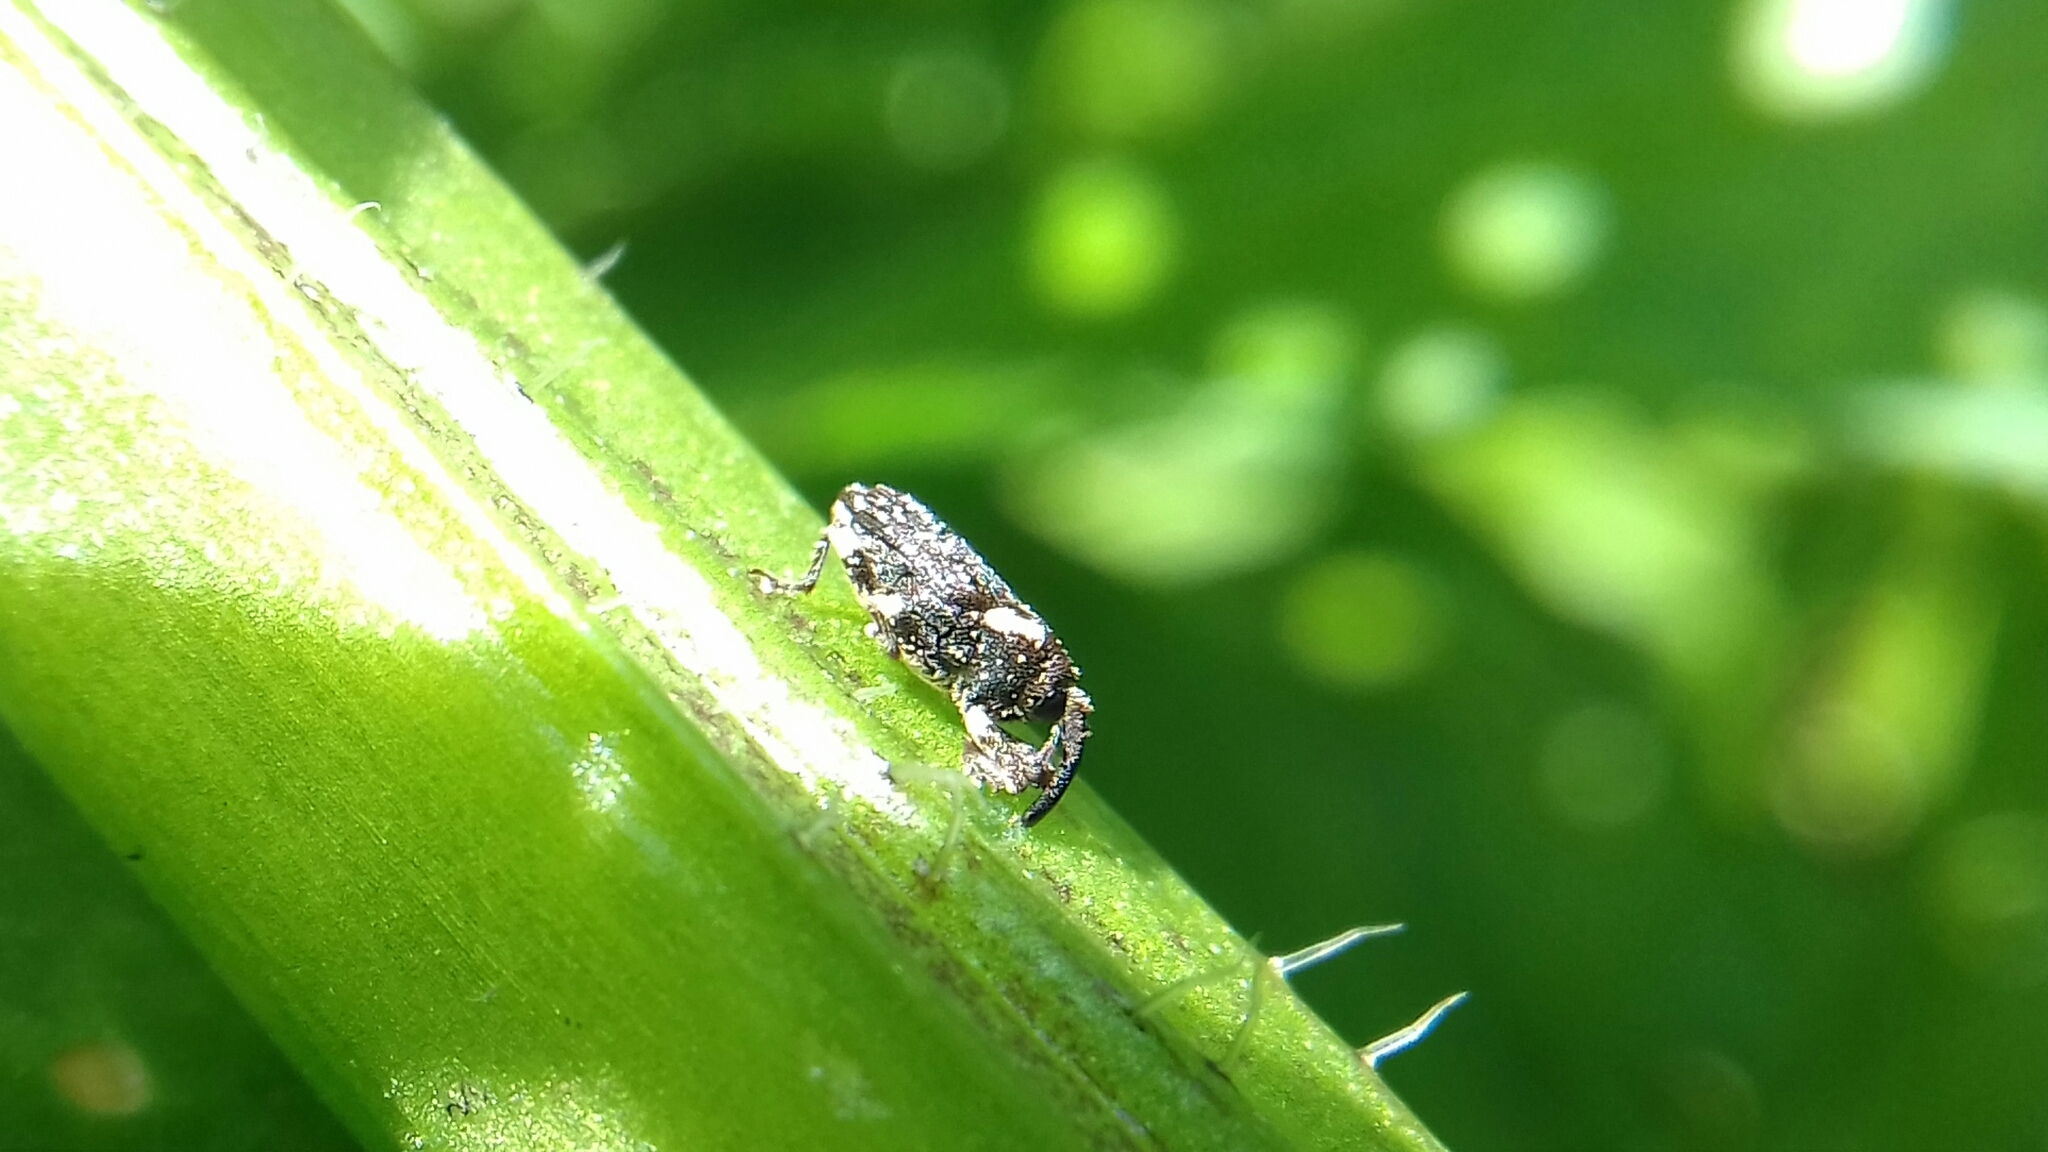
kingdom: Animalia
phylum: Arthropoda
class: Insecta
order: Coleoptera
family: Curculionidae
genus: Lepidobaris
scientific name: Lepidobaris latisquamis
